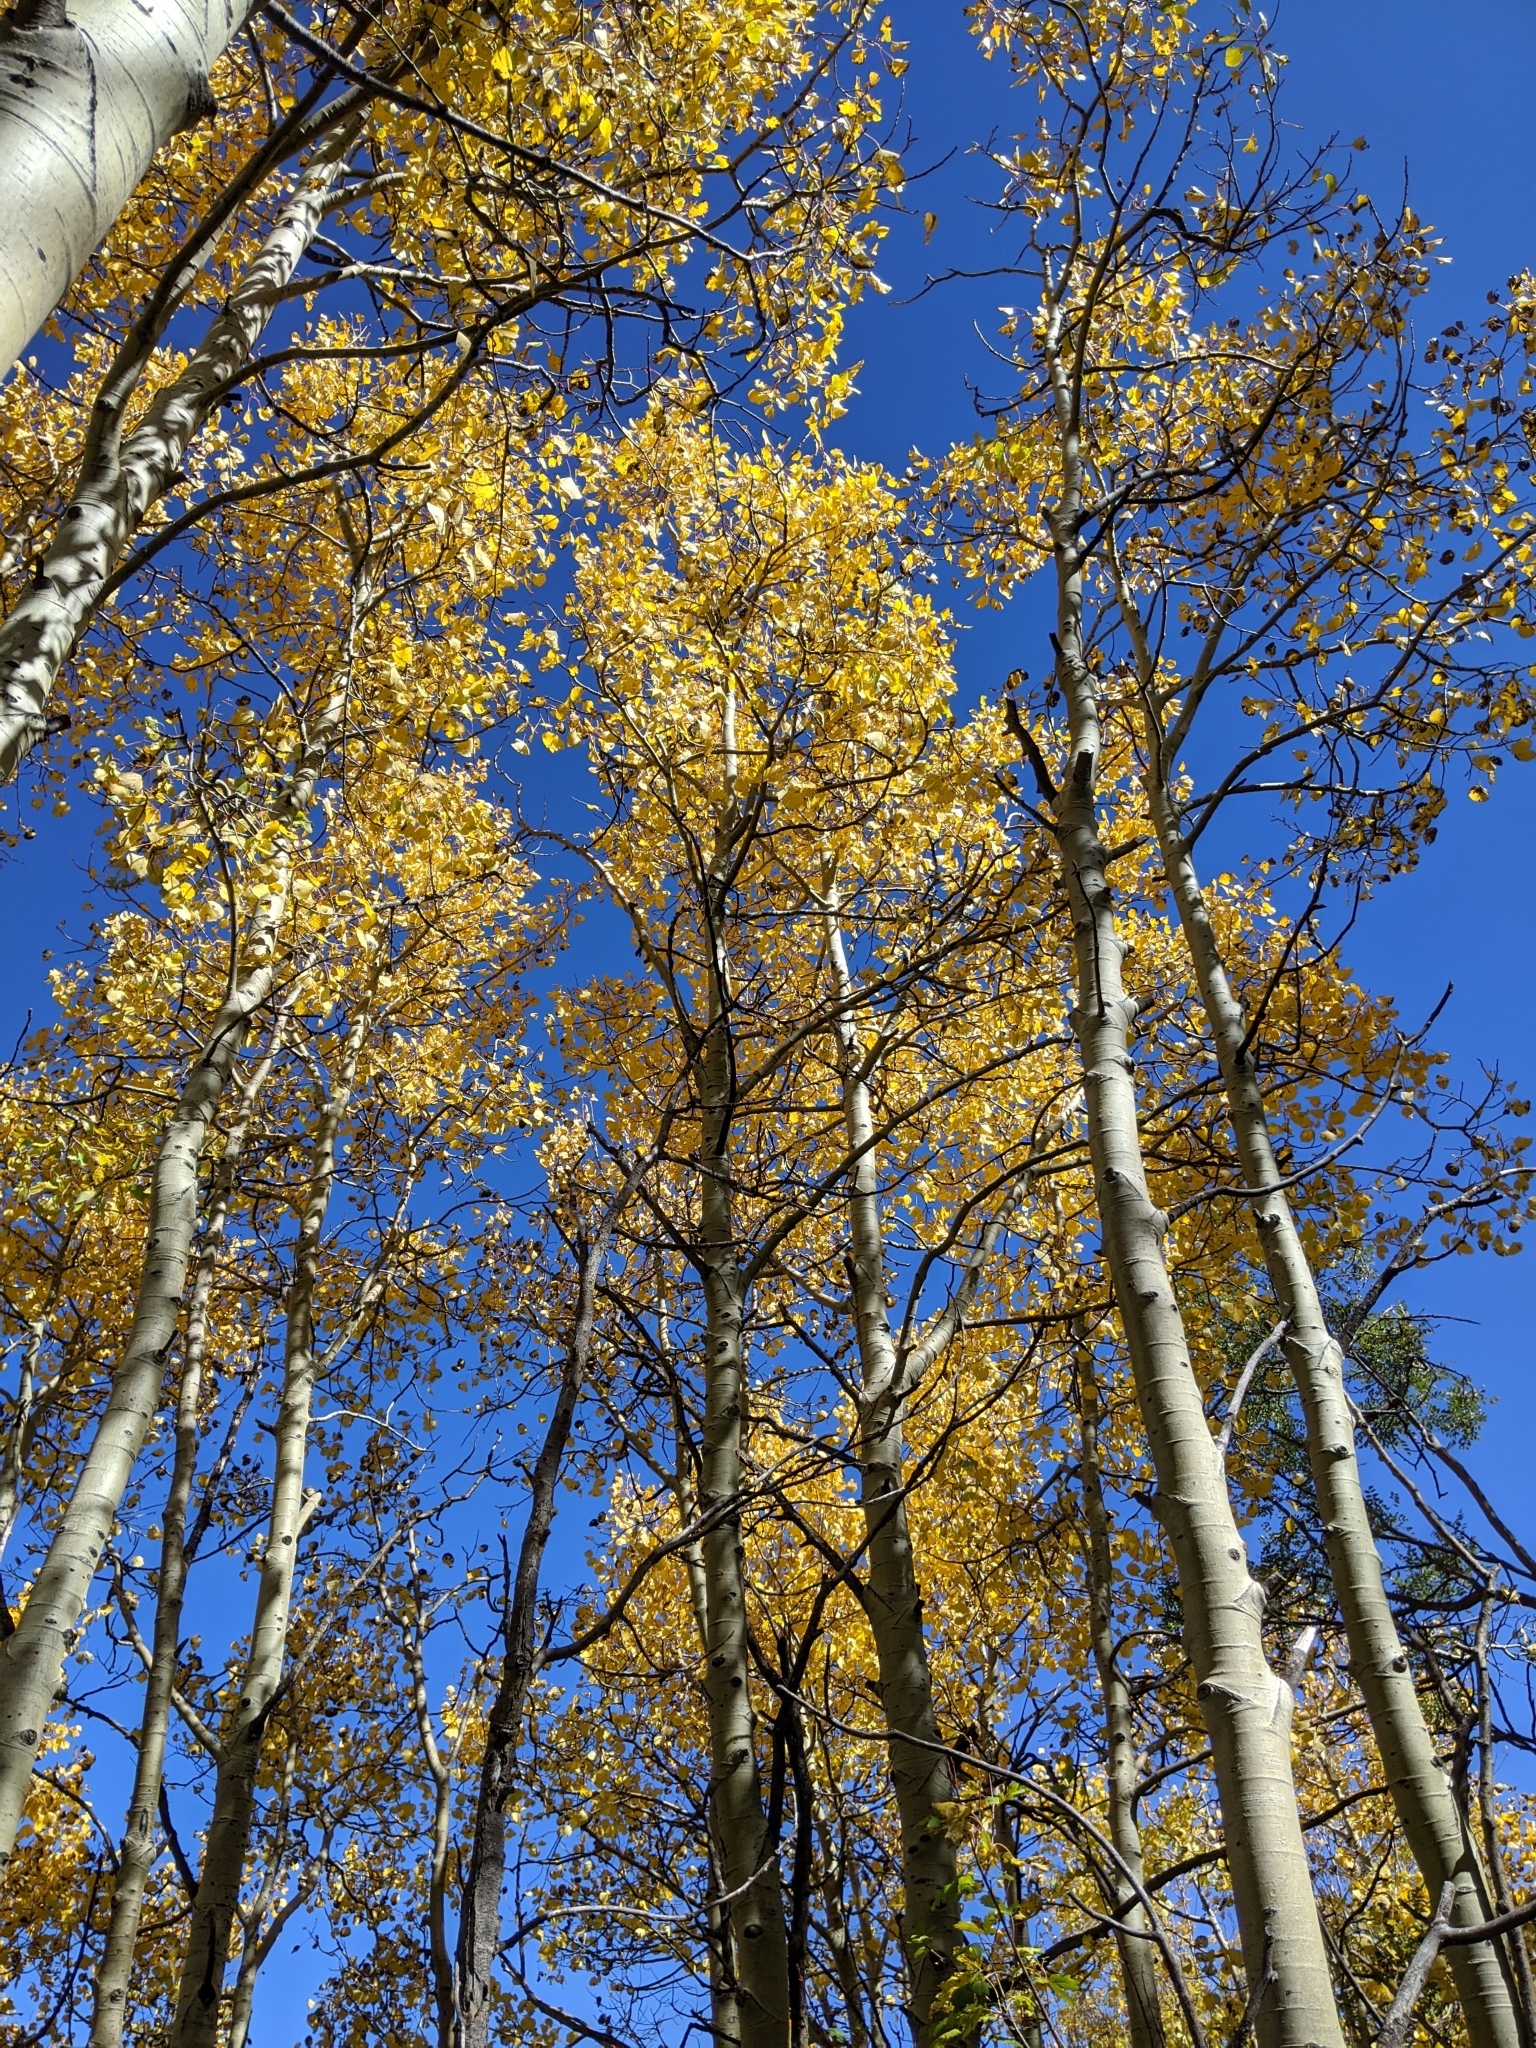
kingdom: Plantae
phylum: Tracheophyta
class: Magnoliopsida
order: Malpighiales
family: Salicaceae
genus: Populus
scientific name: Populus tremuloides
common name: Quaking aspen
